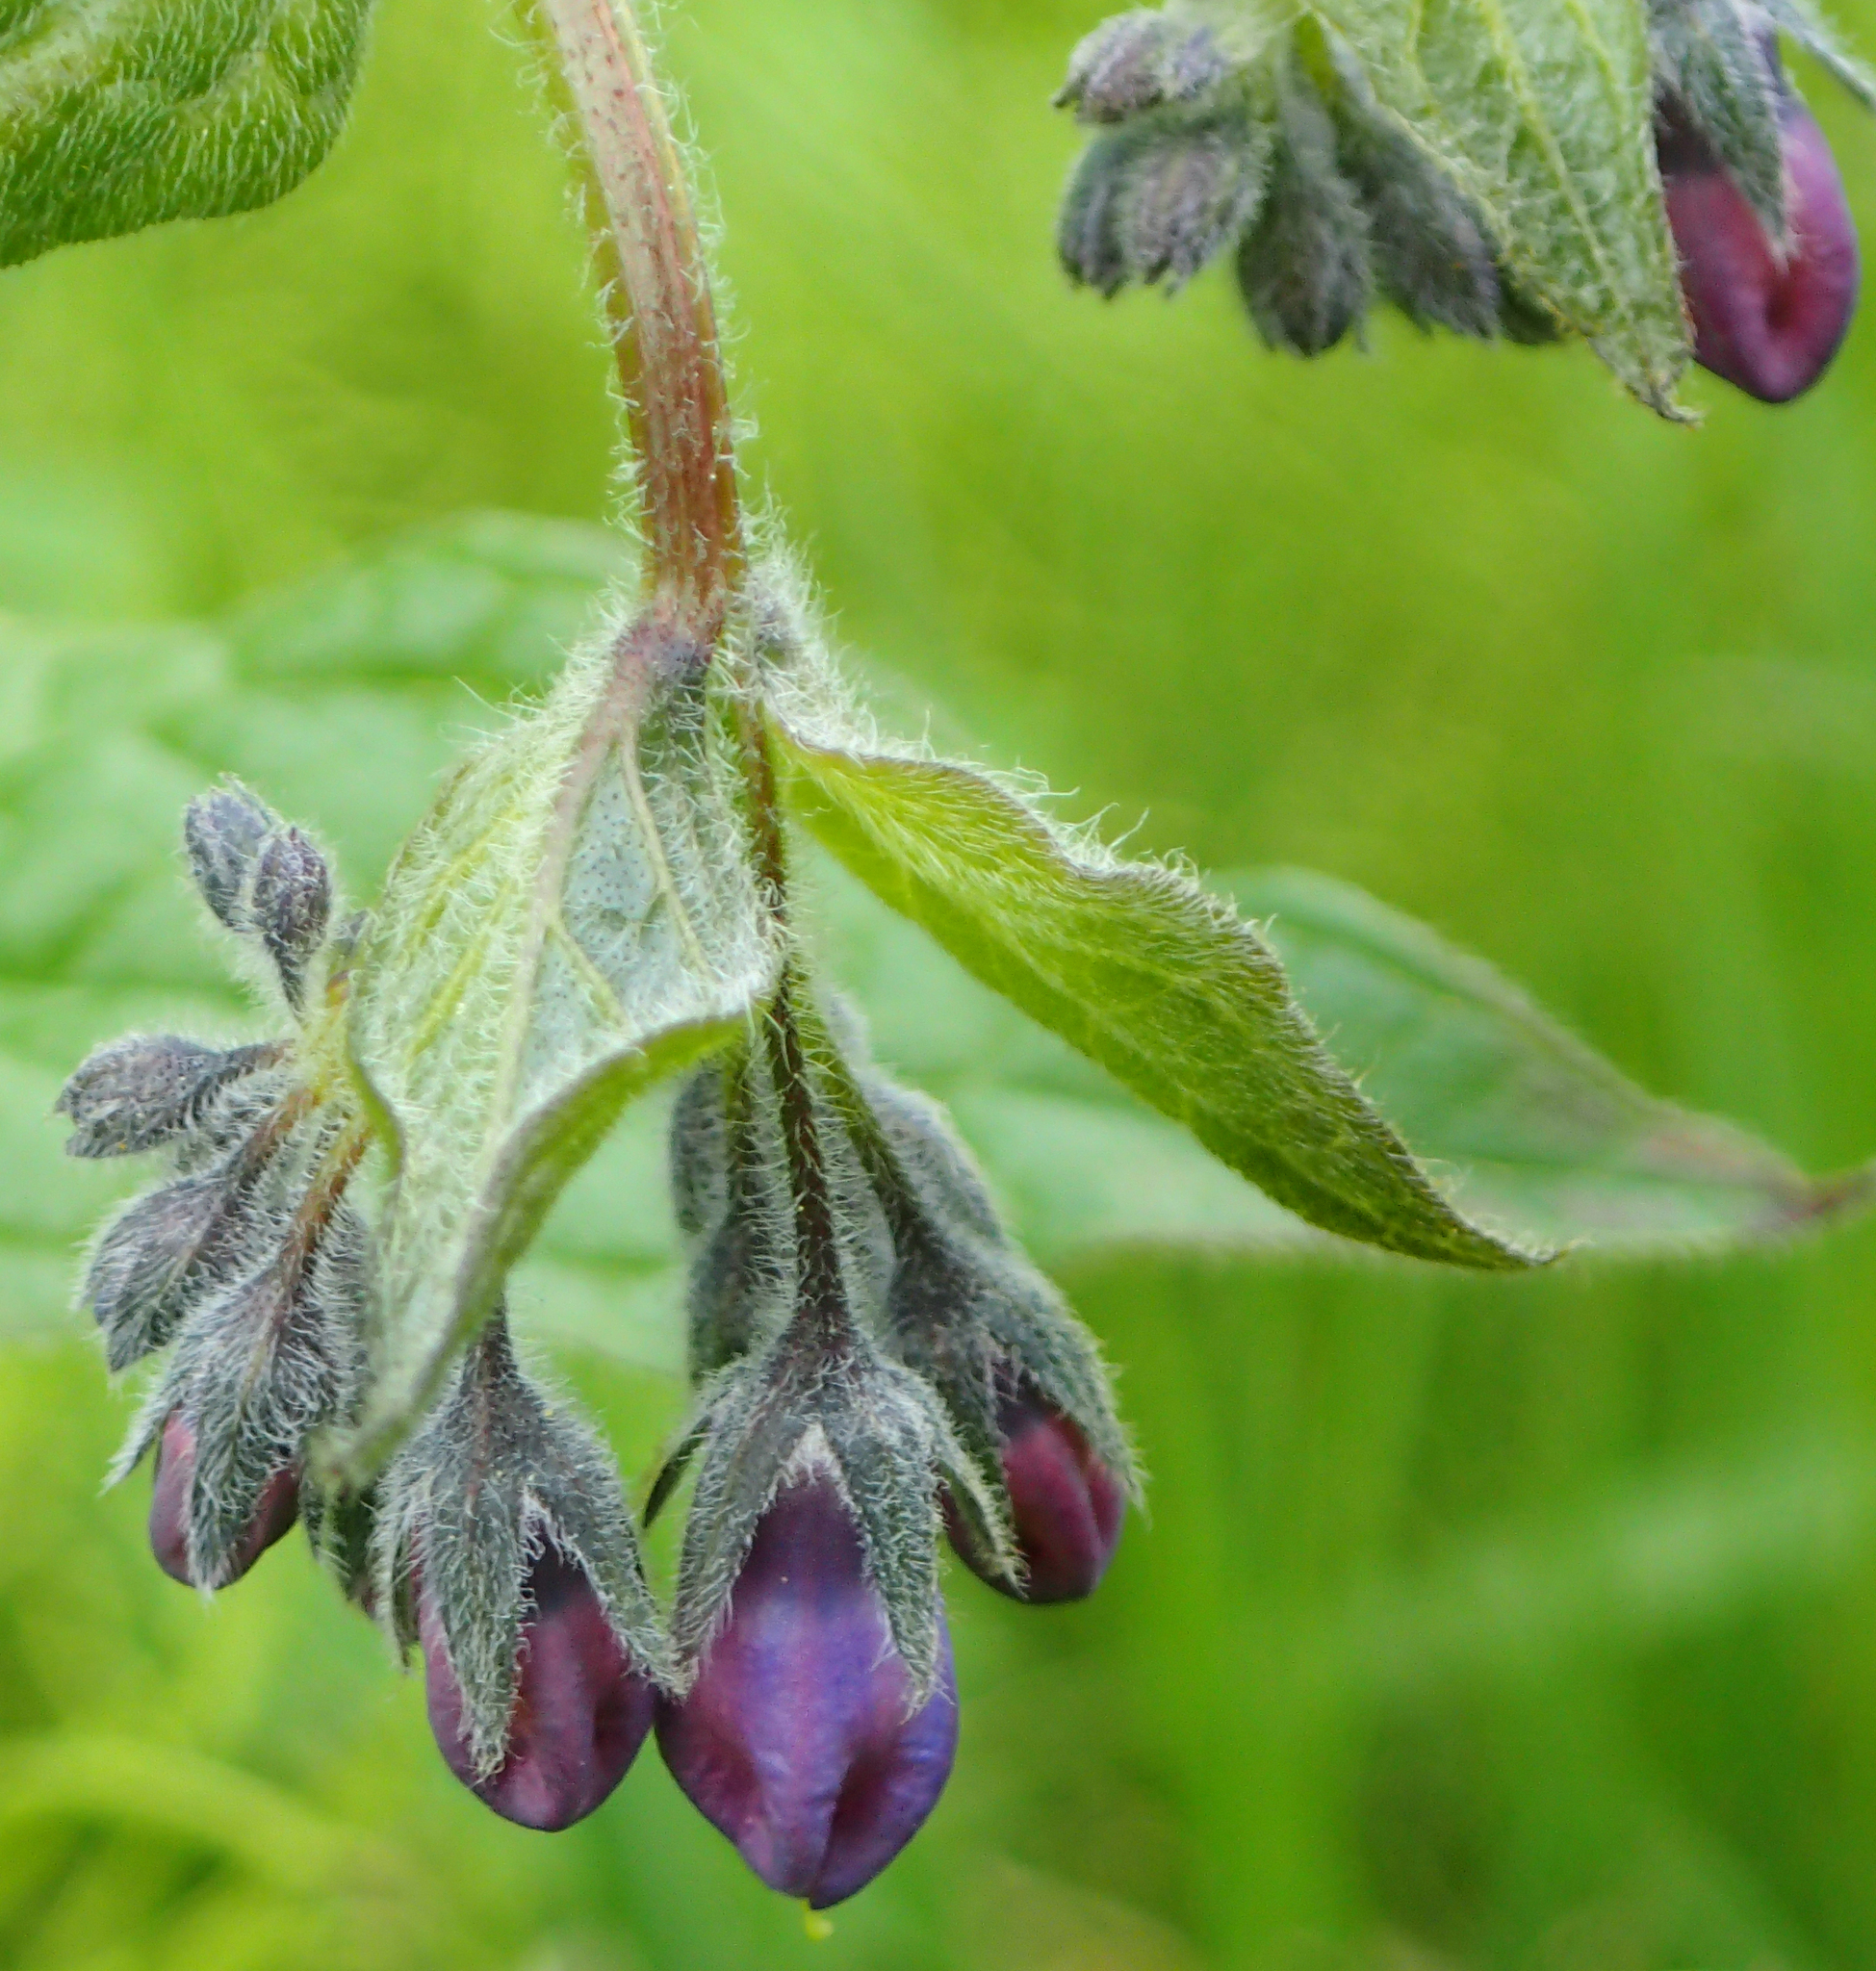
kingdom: Plantae
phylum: Tracheophyta
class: Magnoliopsida
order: Boraginales
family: Boraginaceae
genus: Mertensia
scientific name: Mertensia paniculata
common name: Panicled bluebells
